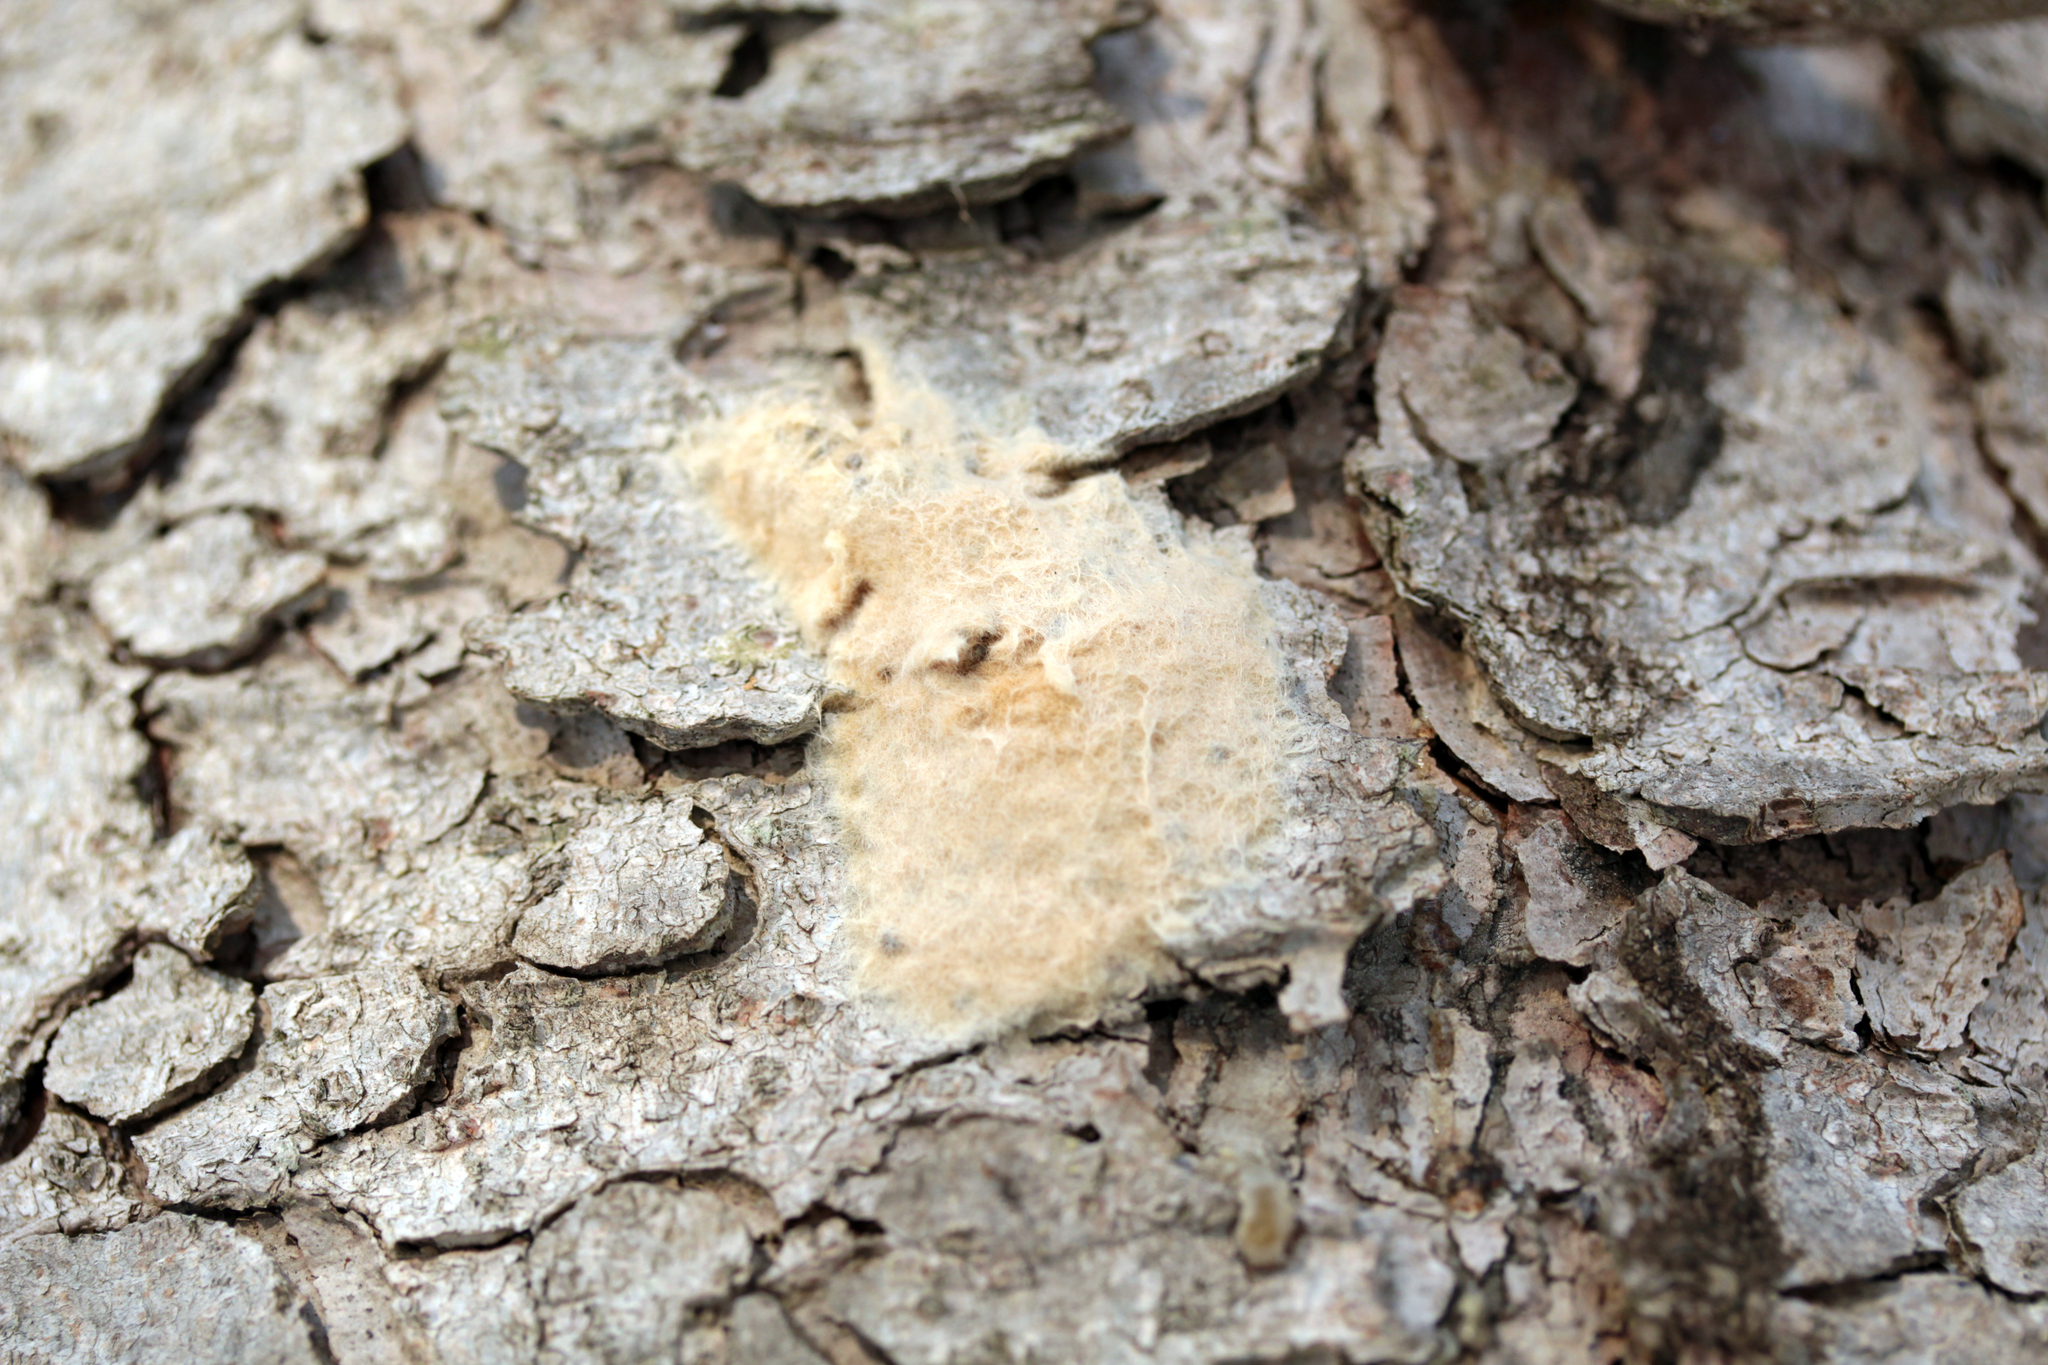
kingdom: Animalia
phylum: Arthropoda
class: Insecta
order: Lepidoptera
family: Erebidae
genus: Lymantria
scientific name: Lymantria dispar
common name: Gypsy moth
